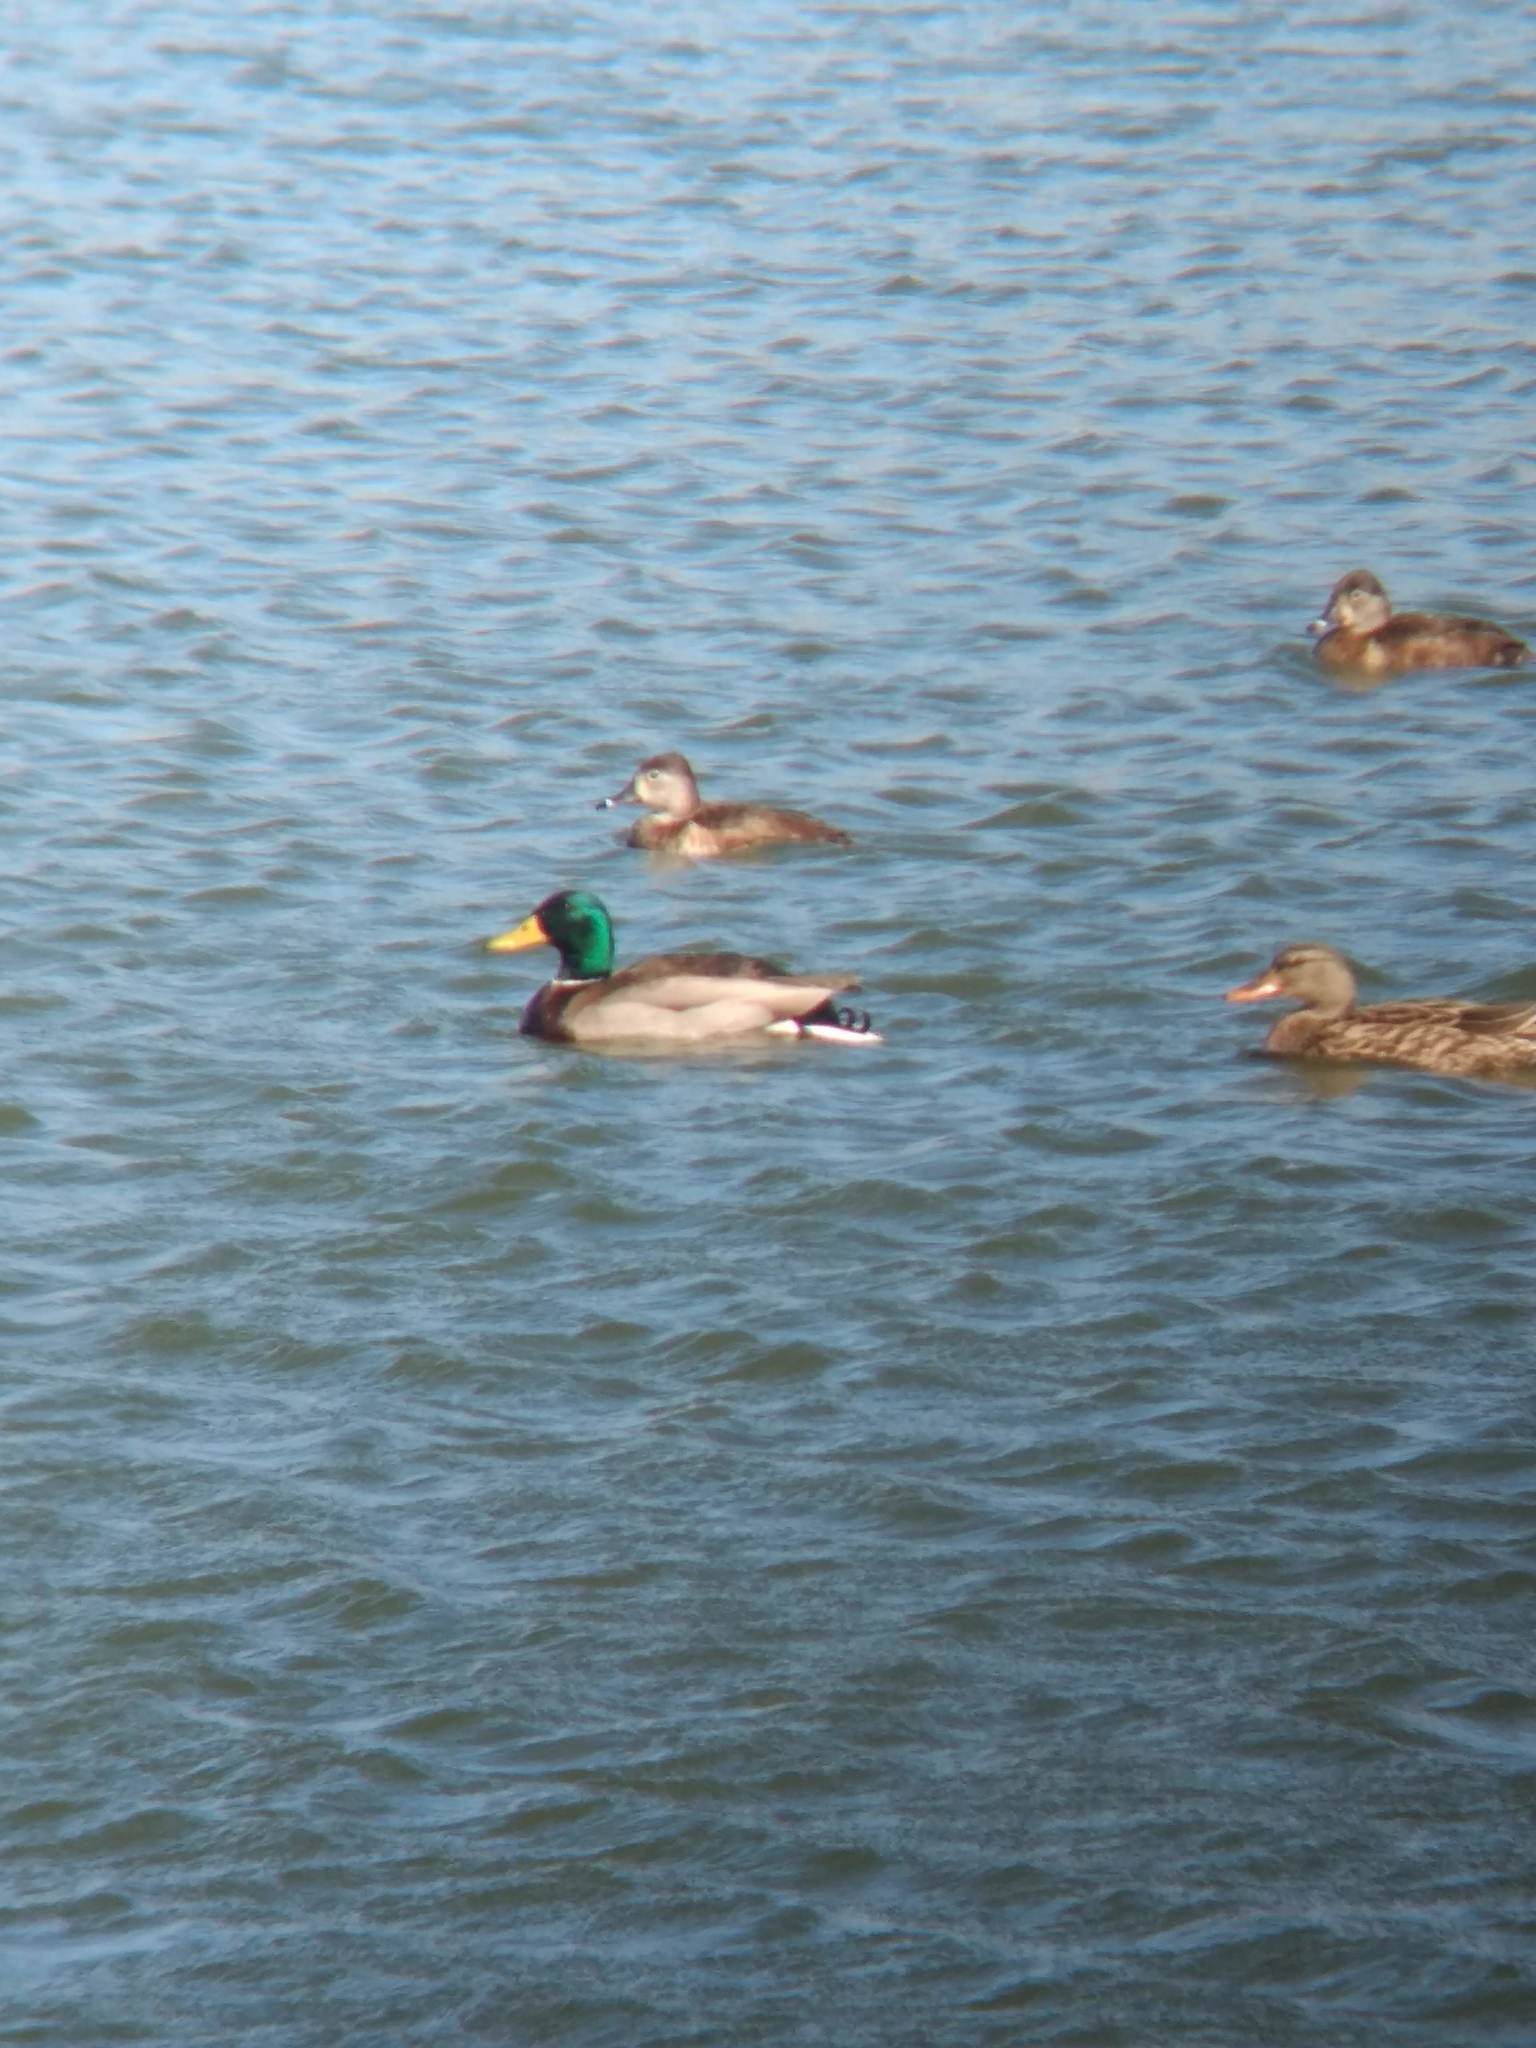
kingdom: Animalia
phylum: Chordata
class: Aves
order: Anseriformes
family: Anatidae
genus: Anas
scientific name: Anas platyrhynchos
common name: Mallard
